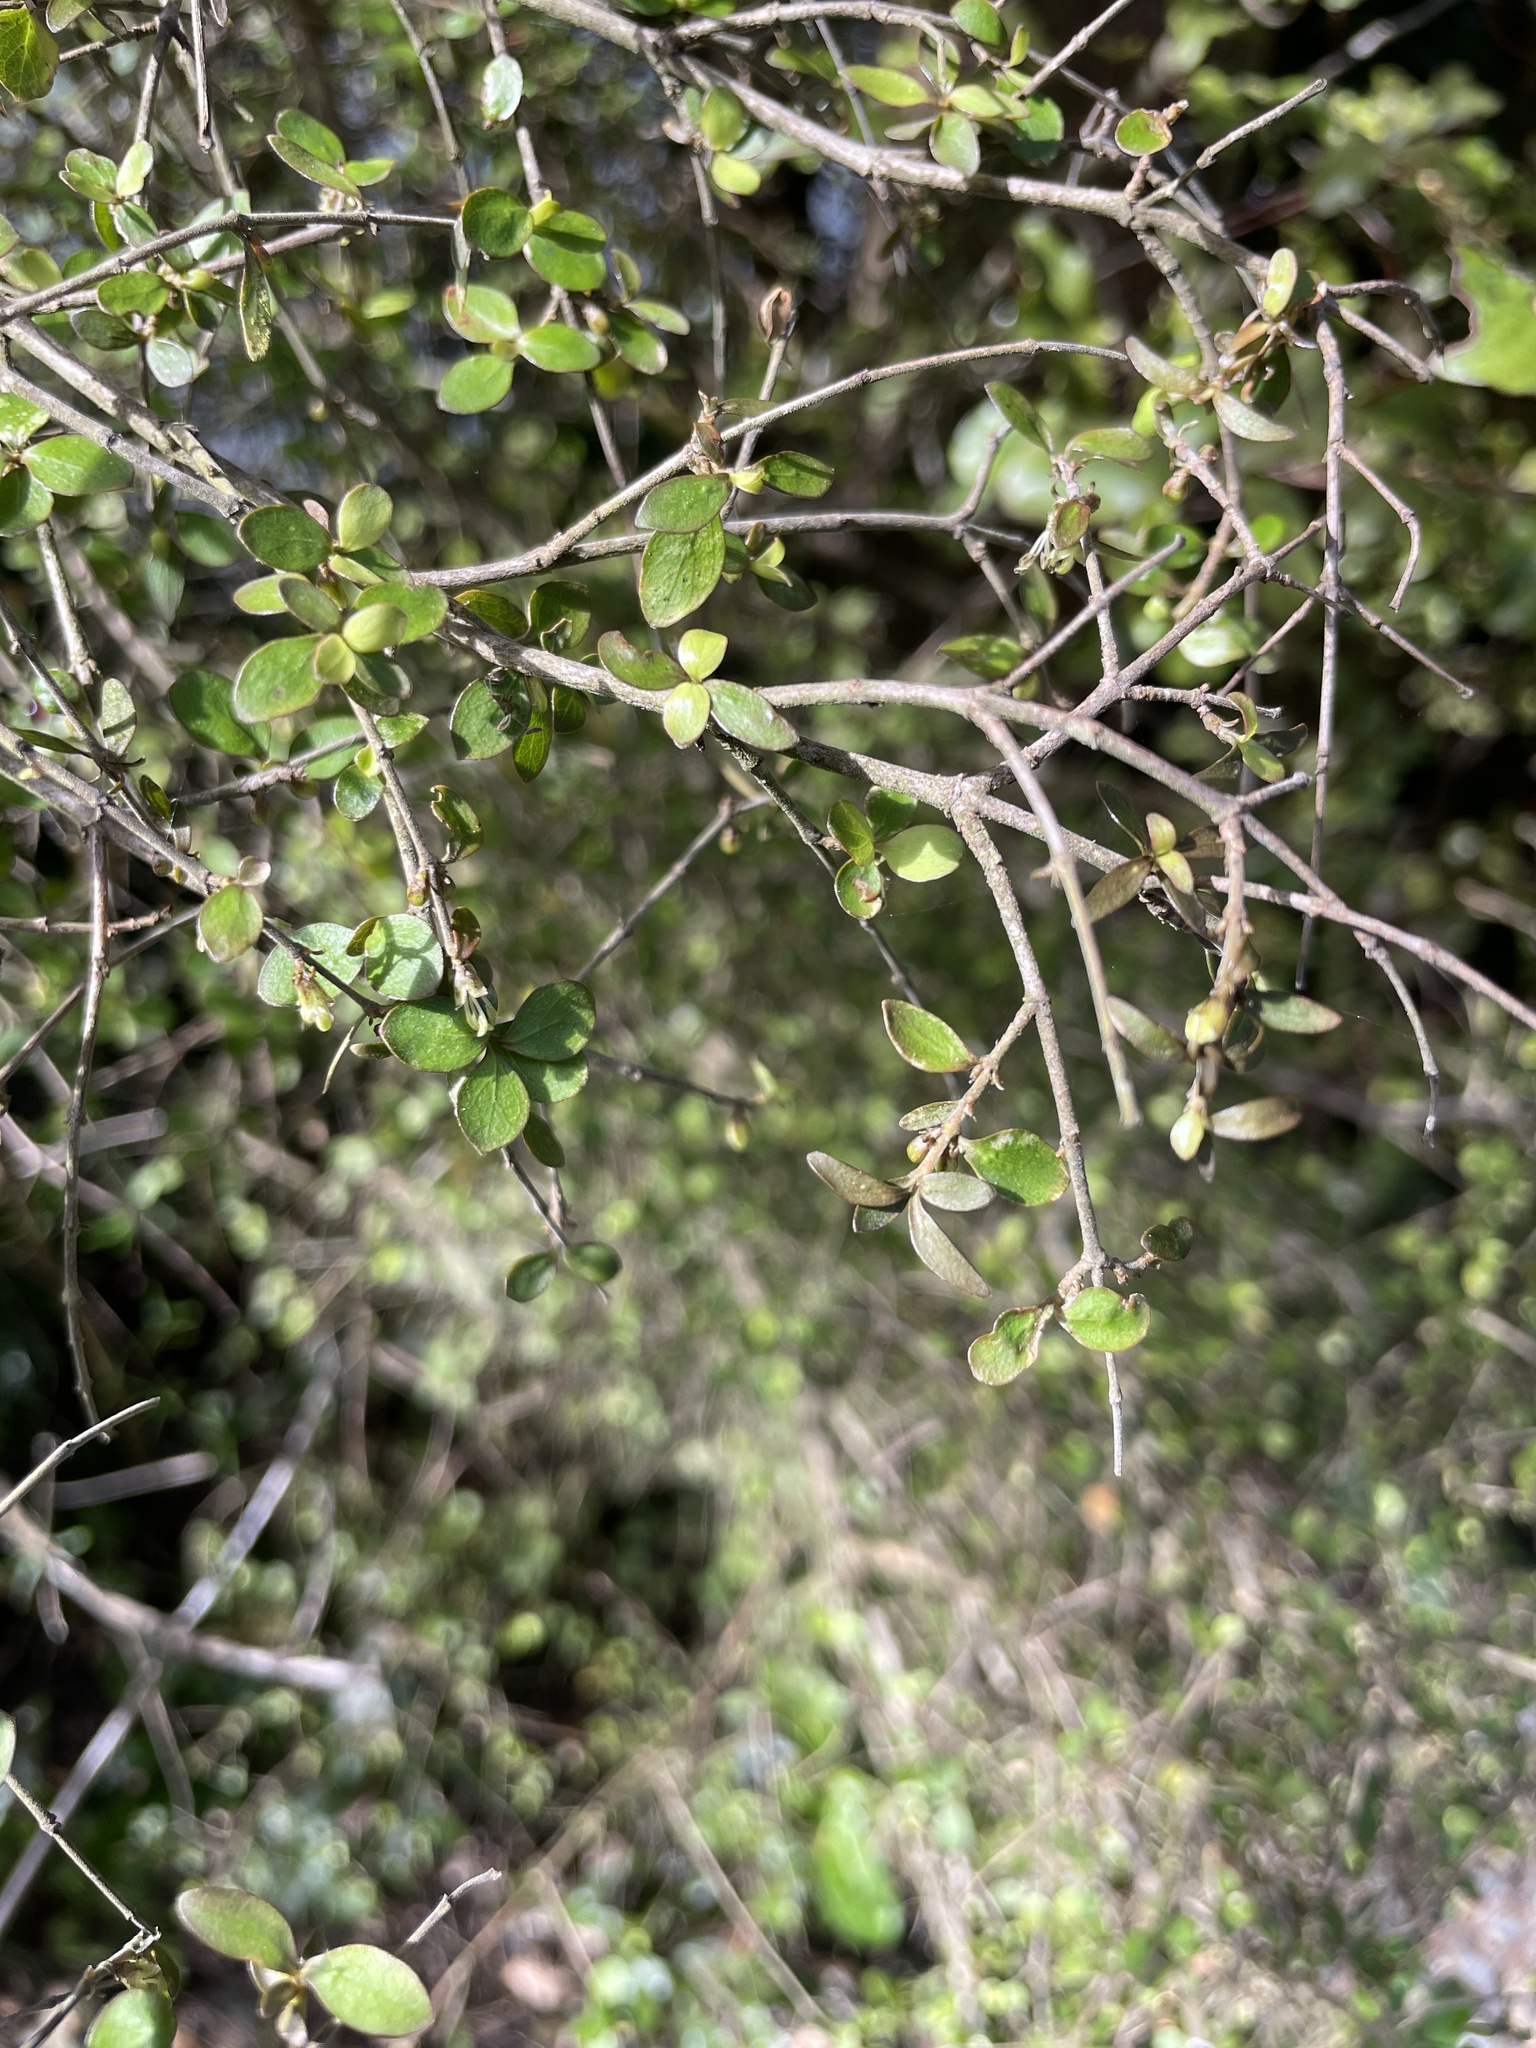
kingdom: Plantae
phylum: Tracheophyta
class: Magnoliopsida
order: Gentianales
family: Rubiaceae
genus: Coprosma
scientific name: Coprosma rhamnoides
